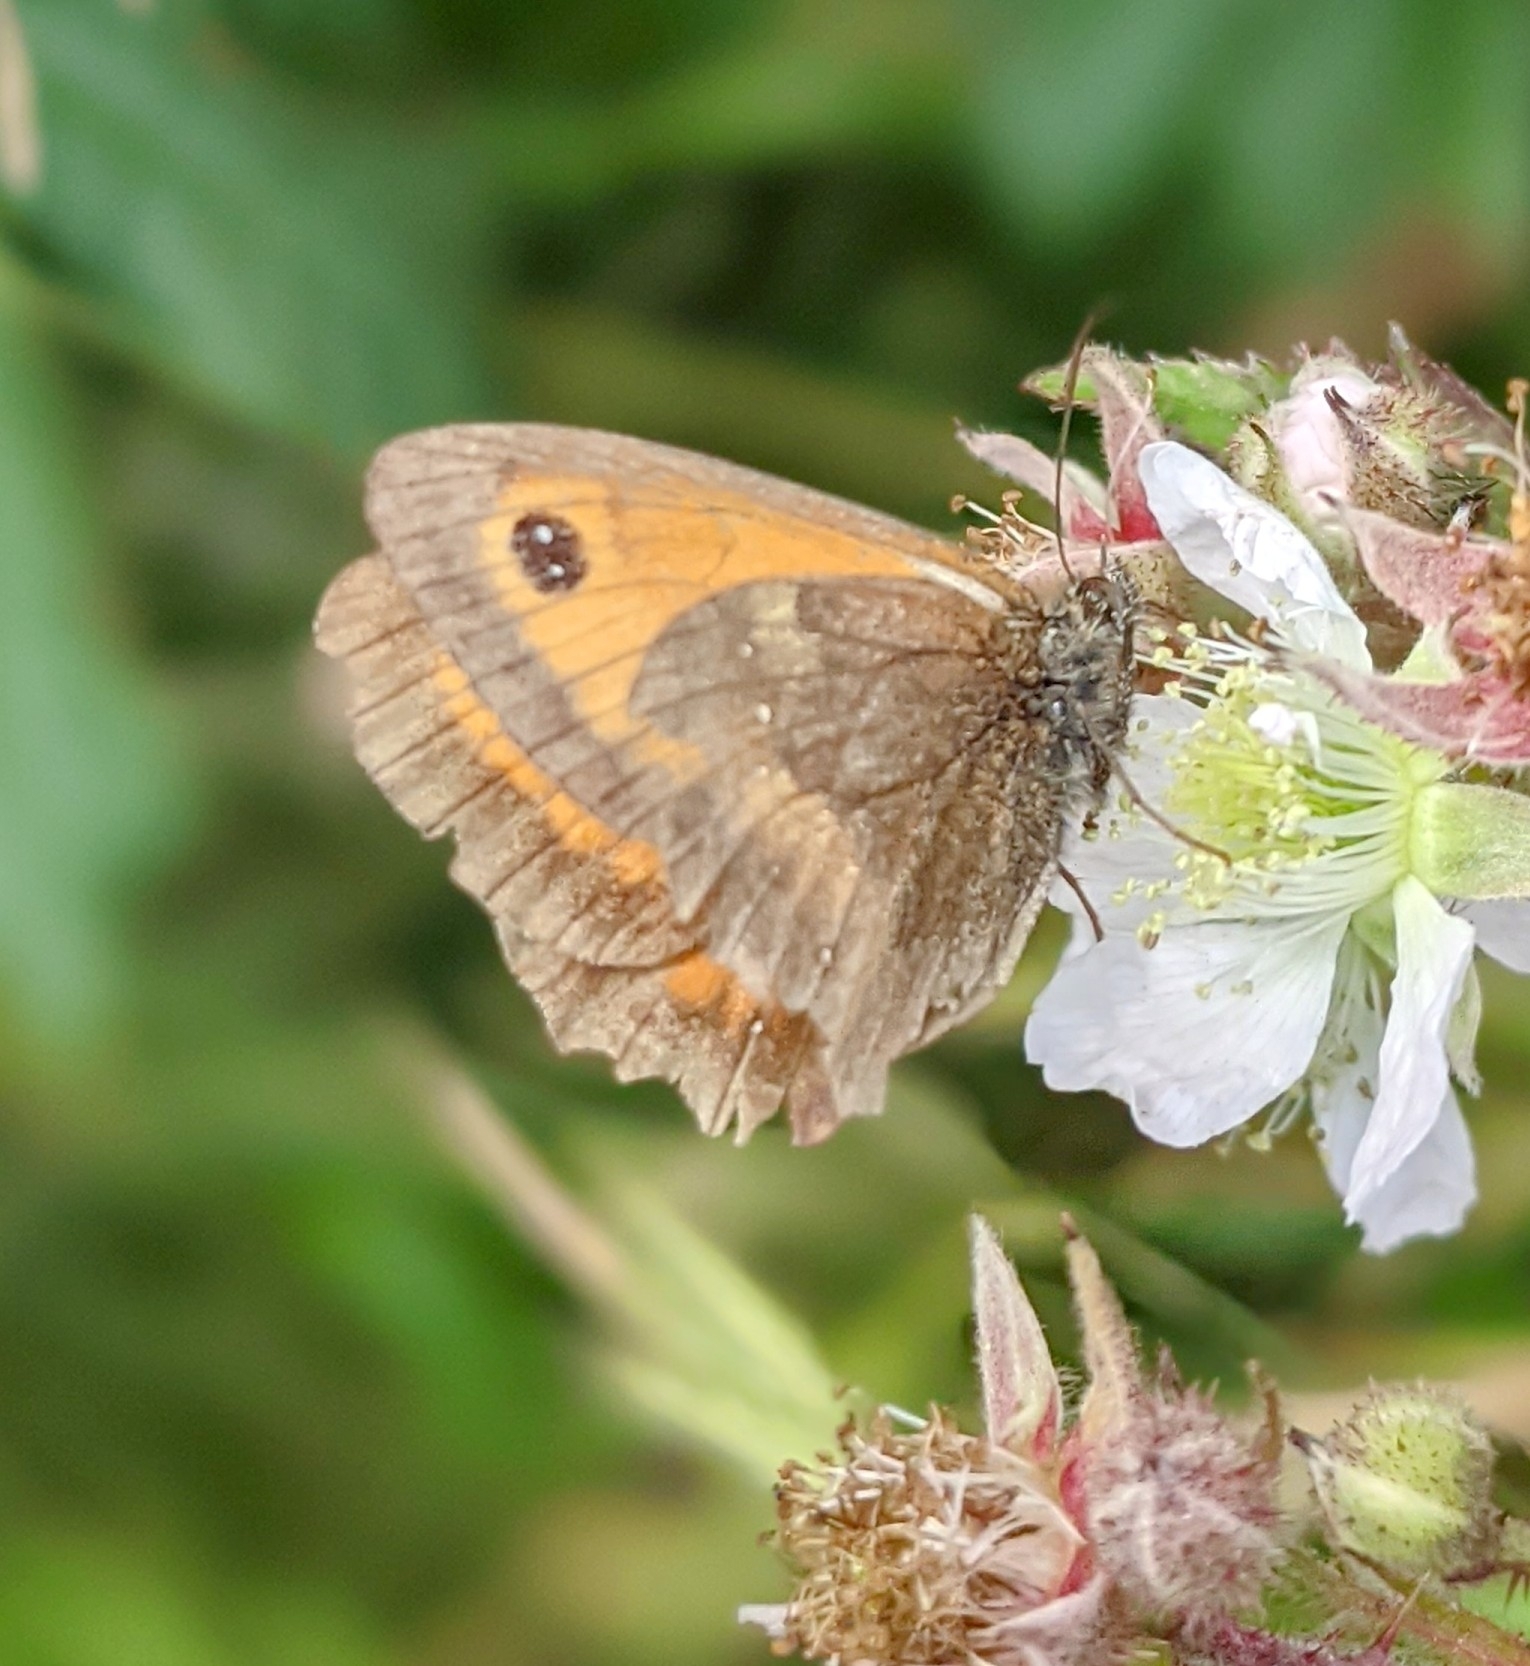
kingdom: Animalia
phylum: Arthropoda
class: Insecta
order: Lepidoptera
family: Nymphalidae
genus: Pyronia
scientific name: Pyronia tithonus
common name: Gatekeeper
